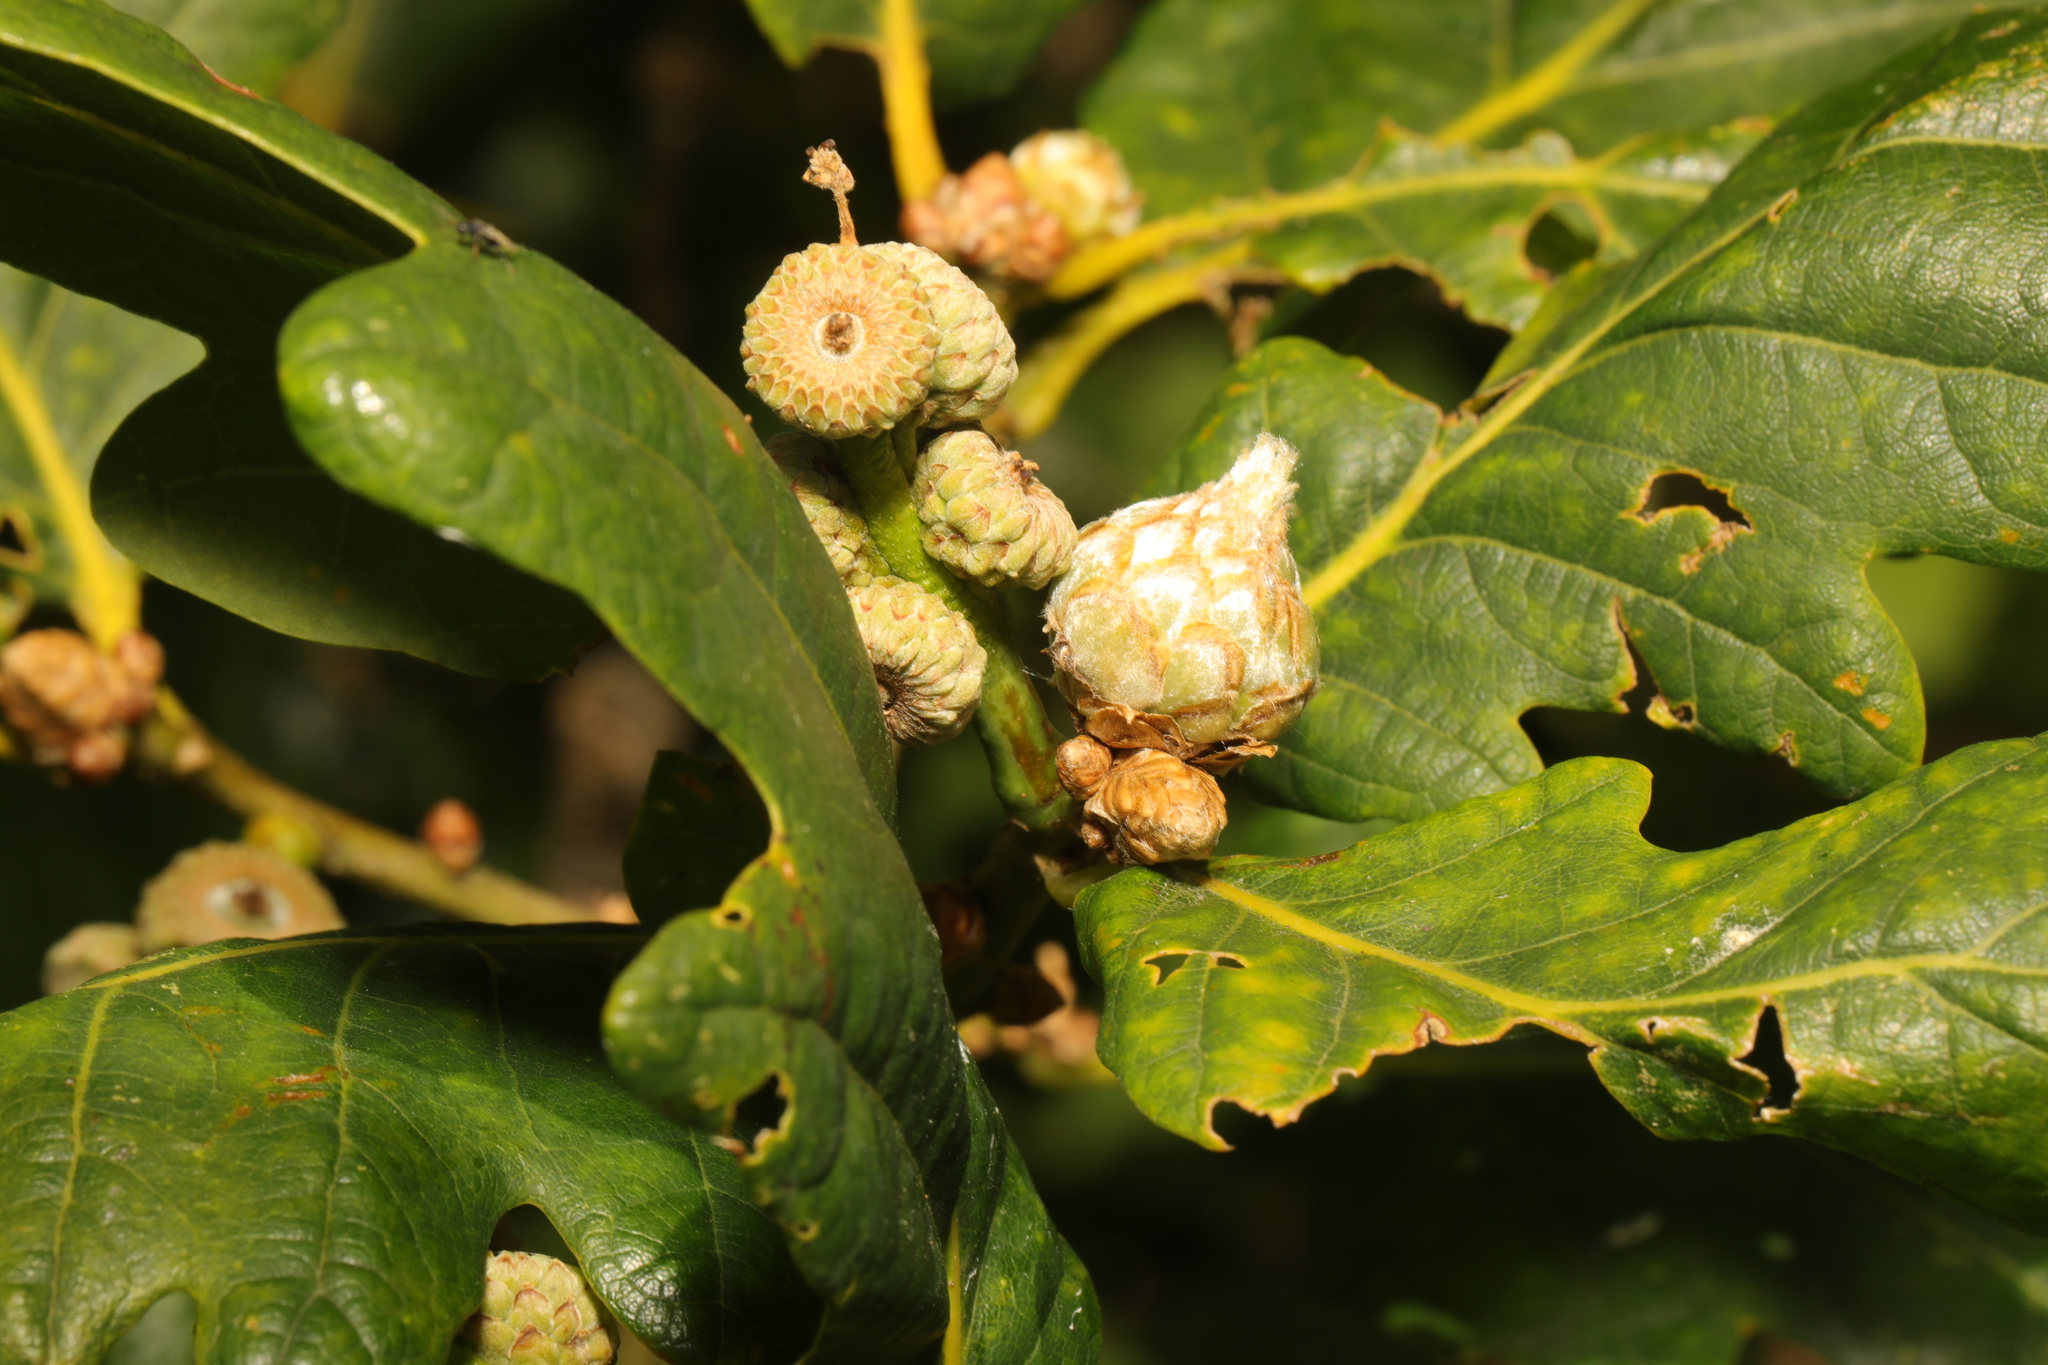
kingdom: Animalia
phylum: Arthropoda
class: Insecta
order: Hymenoptera
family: Cynipidae
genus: Andricus
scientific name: Andricus foecundatrix
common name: Artichoke gall
